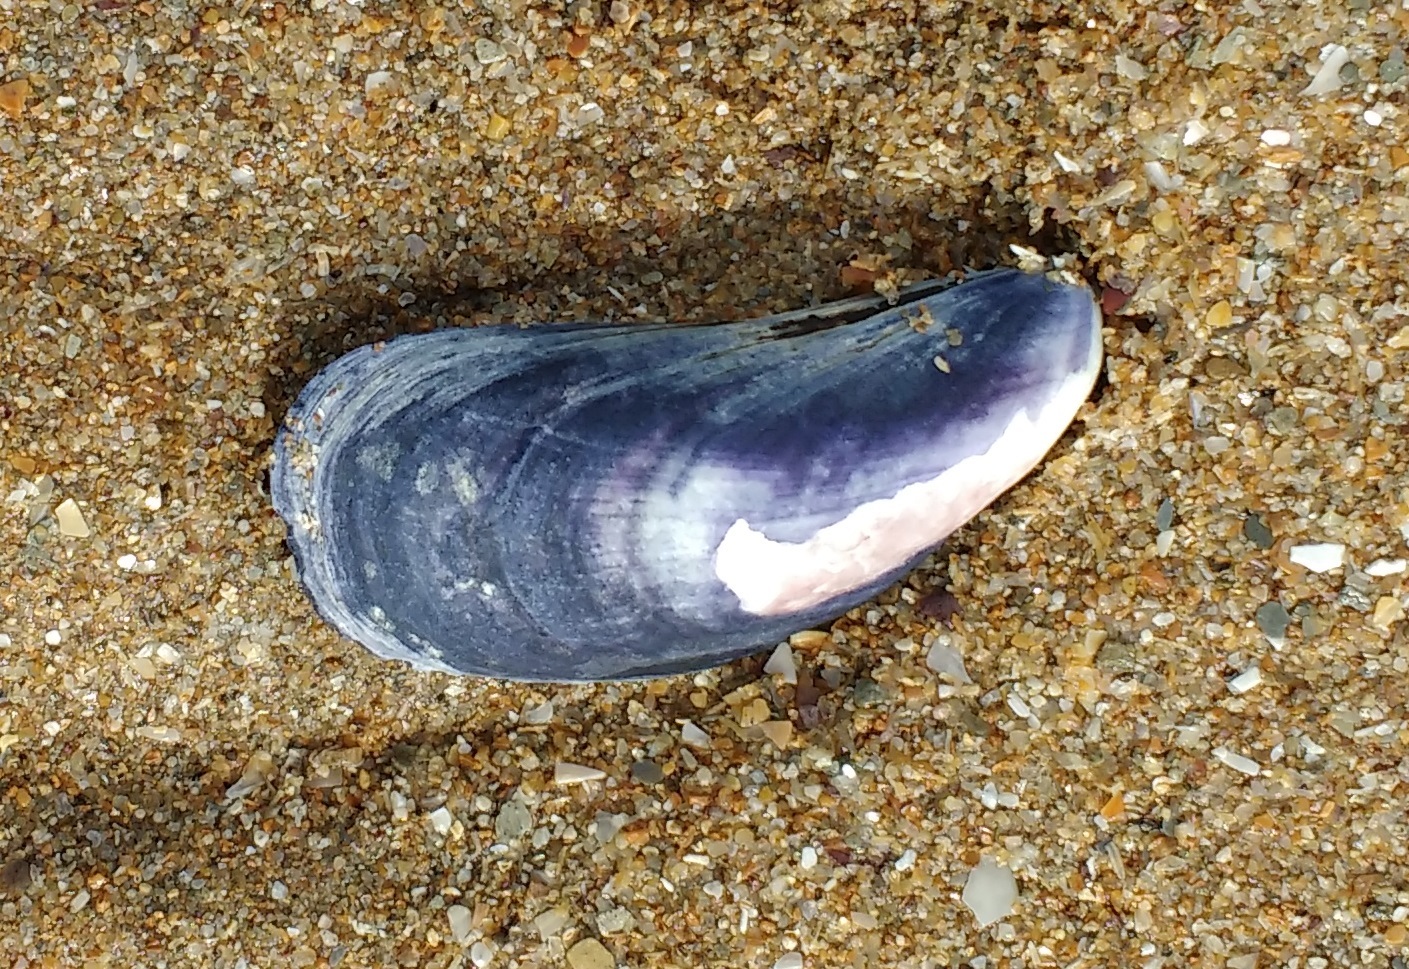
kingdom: Animalia
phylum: Mollusca
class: Bivalvia
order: Mytilida
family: Mytilidae
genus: Mytilus
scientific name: Mytilus edulis
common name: Blue mussel
